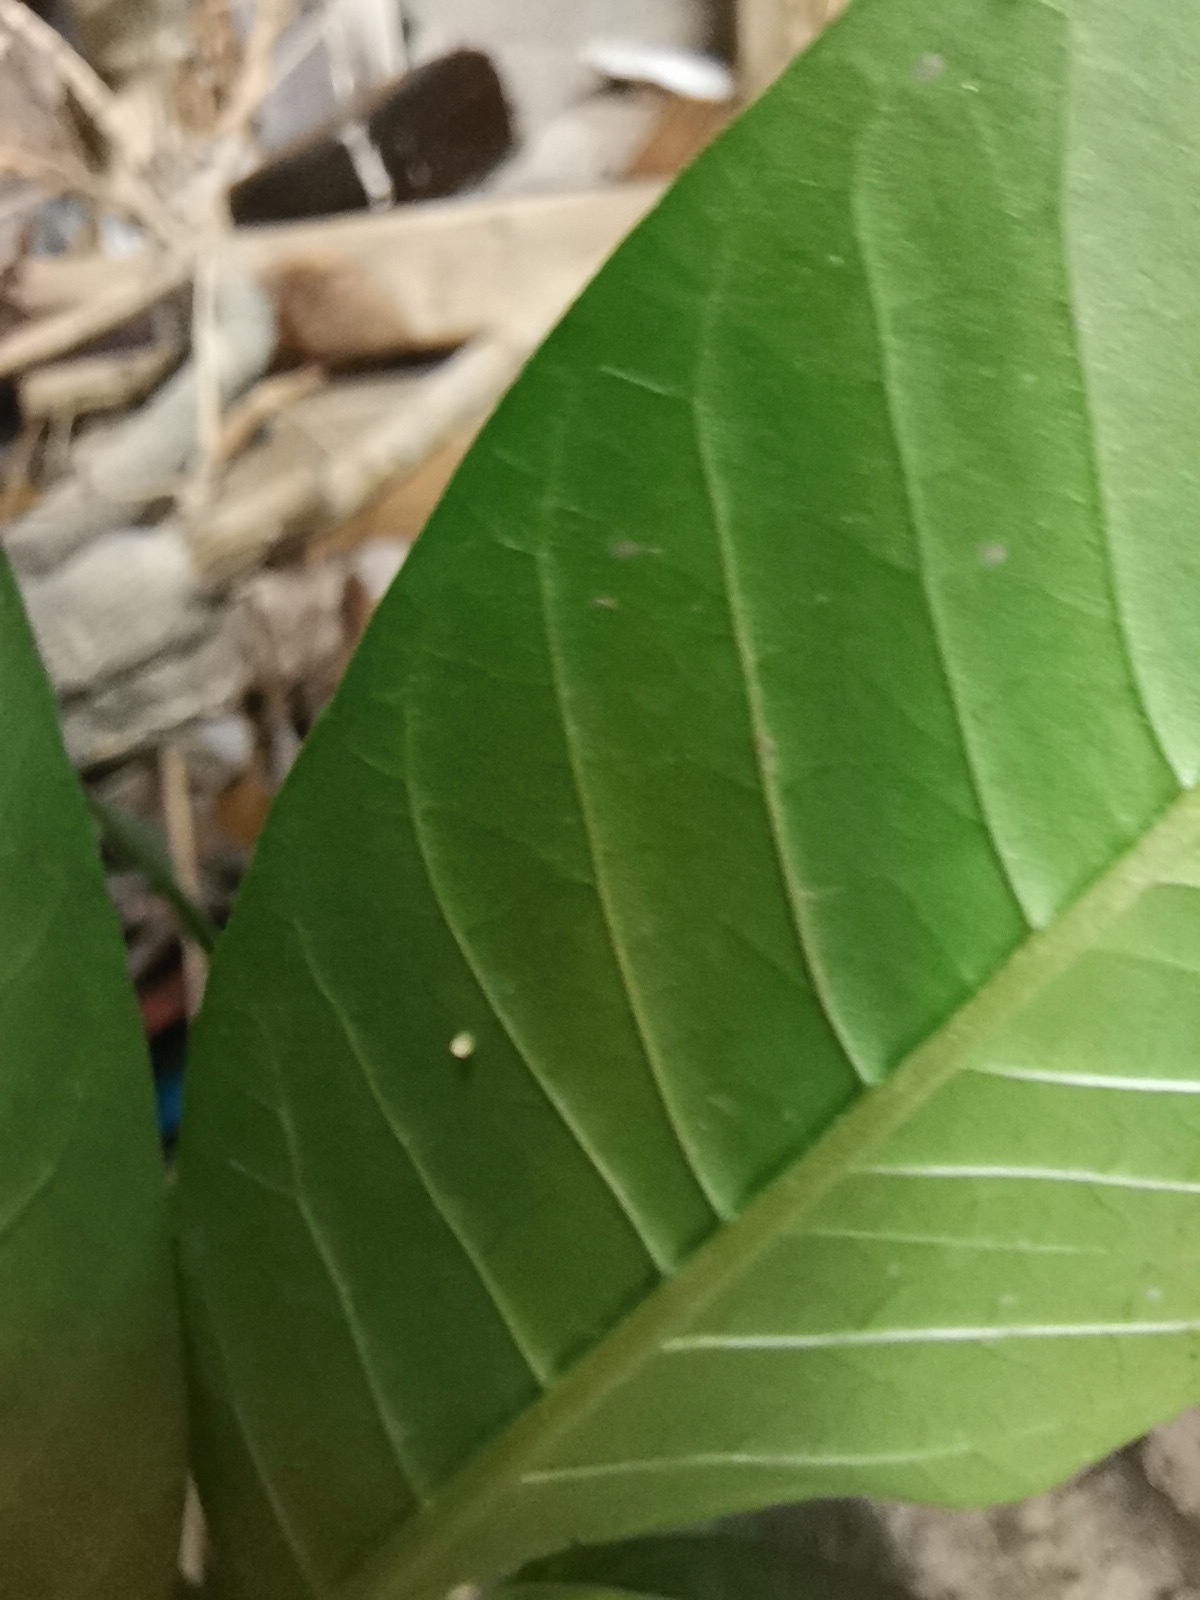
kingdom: Animalia
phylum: Arthropoda
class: Insecta
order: Lepidoptera
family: Nymphalidae
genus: Danaus
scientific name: Danaus plexippus
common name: Monarch
